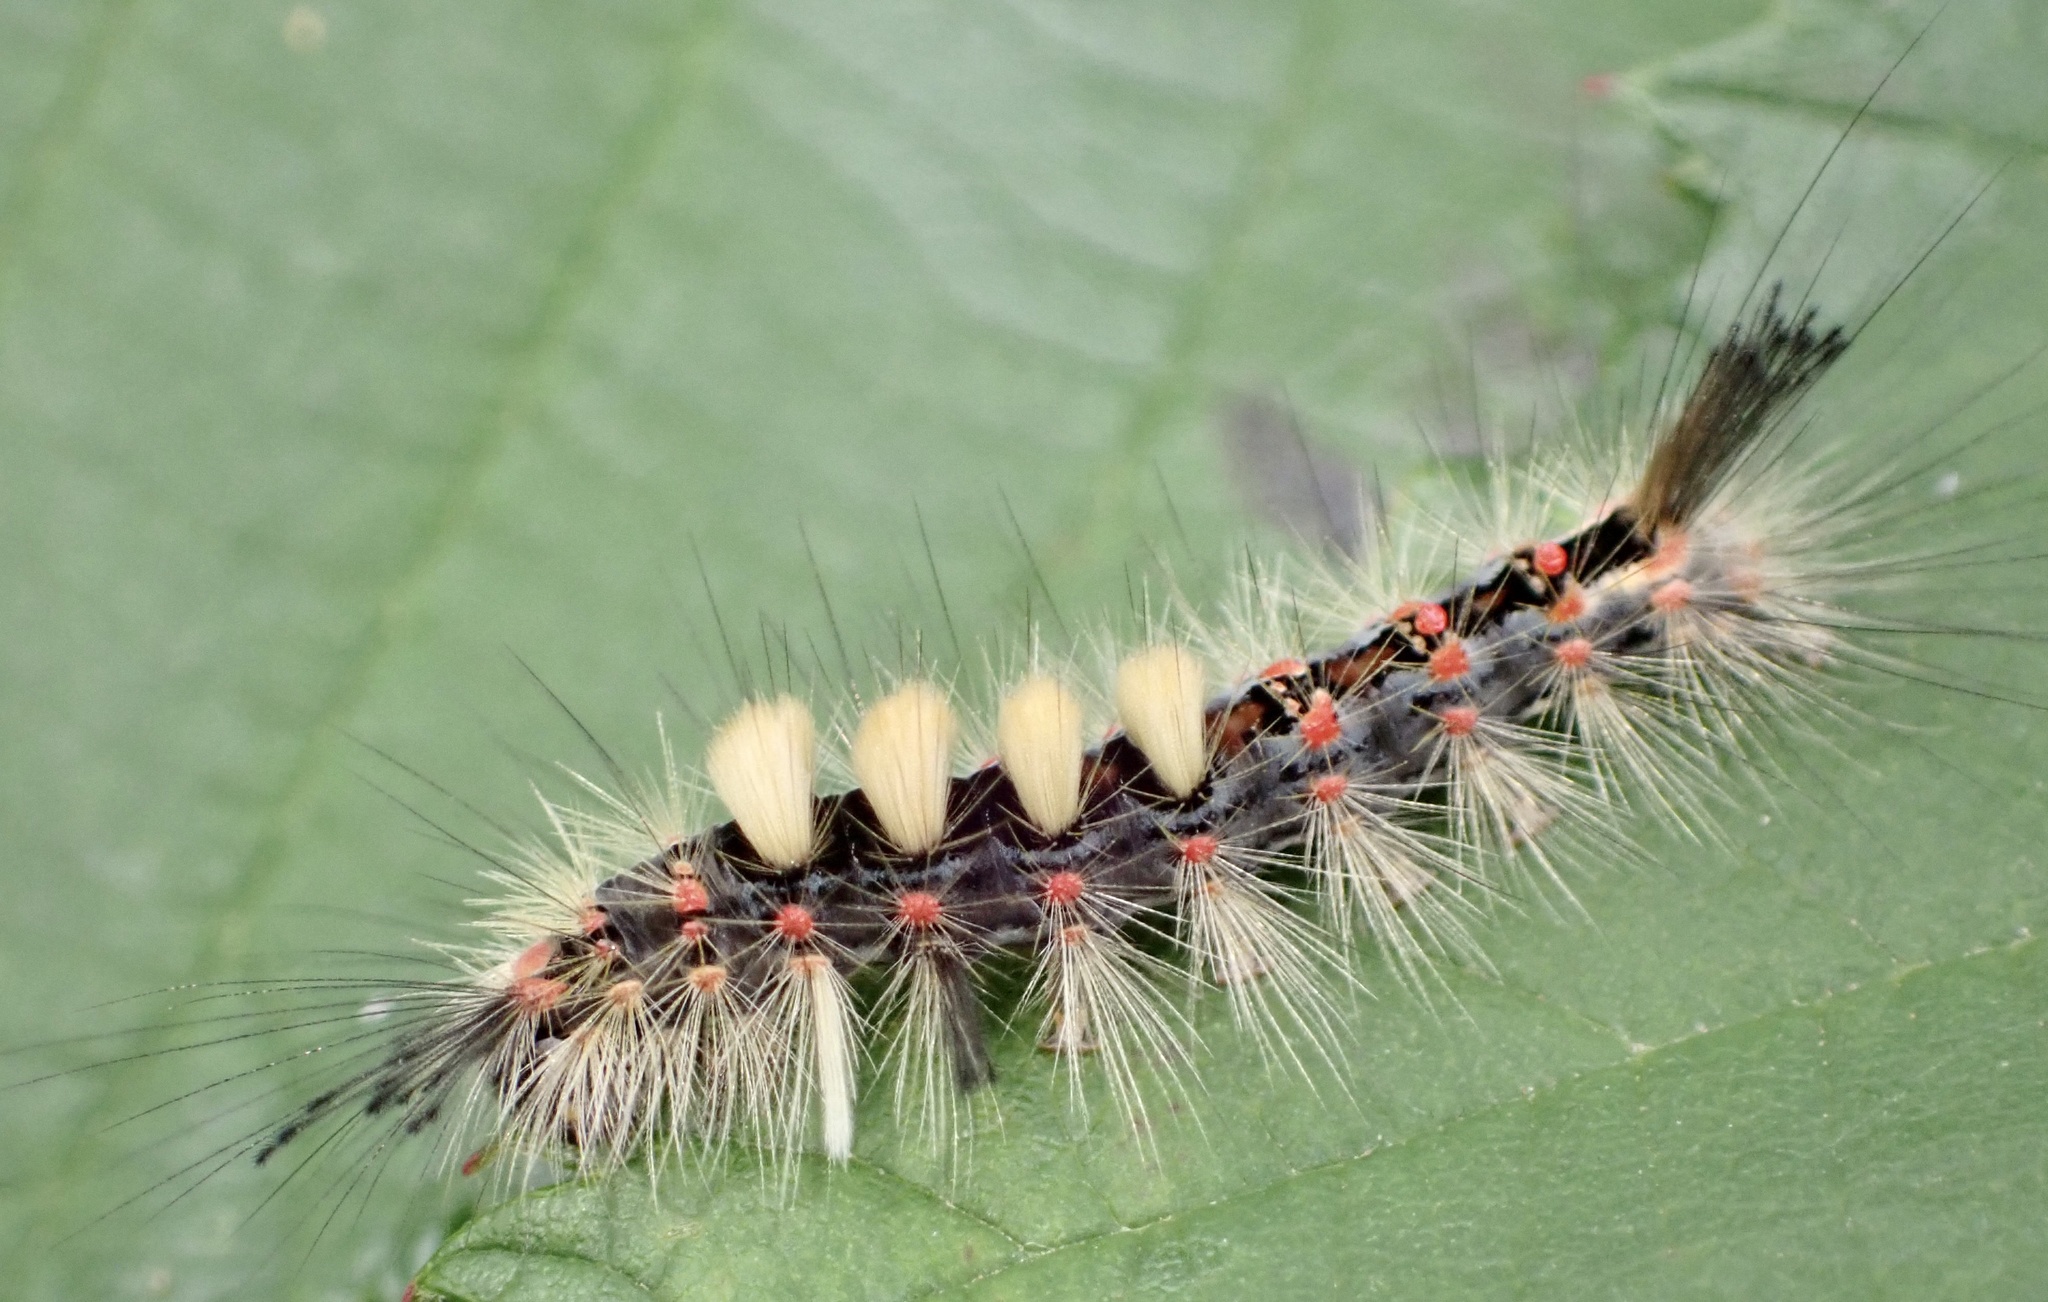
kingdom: Animalia
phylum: Arthropoda
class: Insecta
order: Lepidoptera
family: Erebidae
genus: Orgyia
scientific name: Orgyia antiqua
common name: Vapourer
